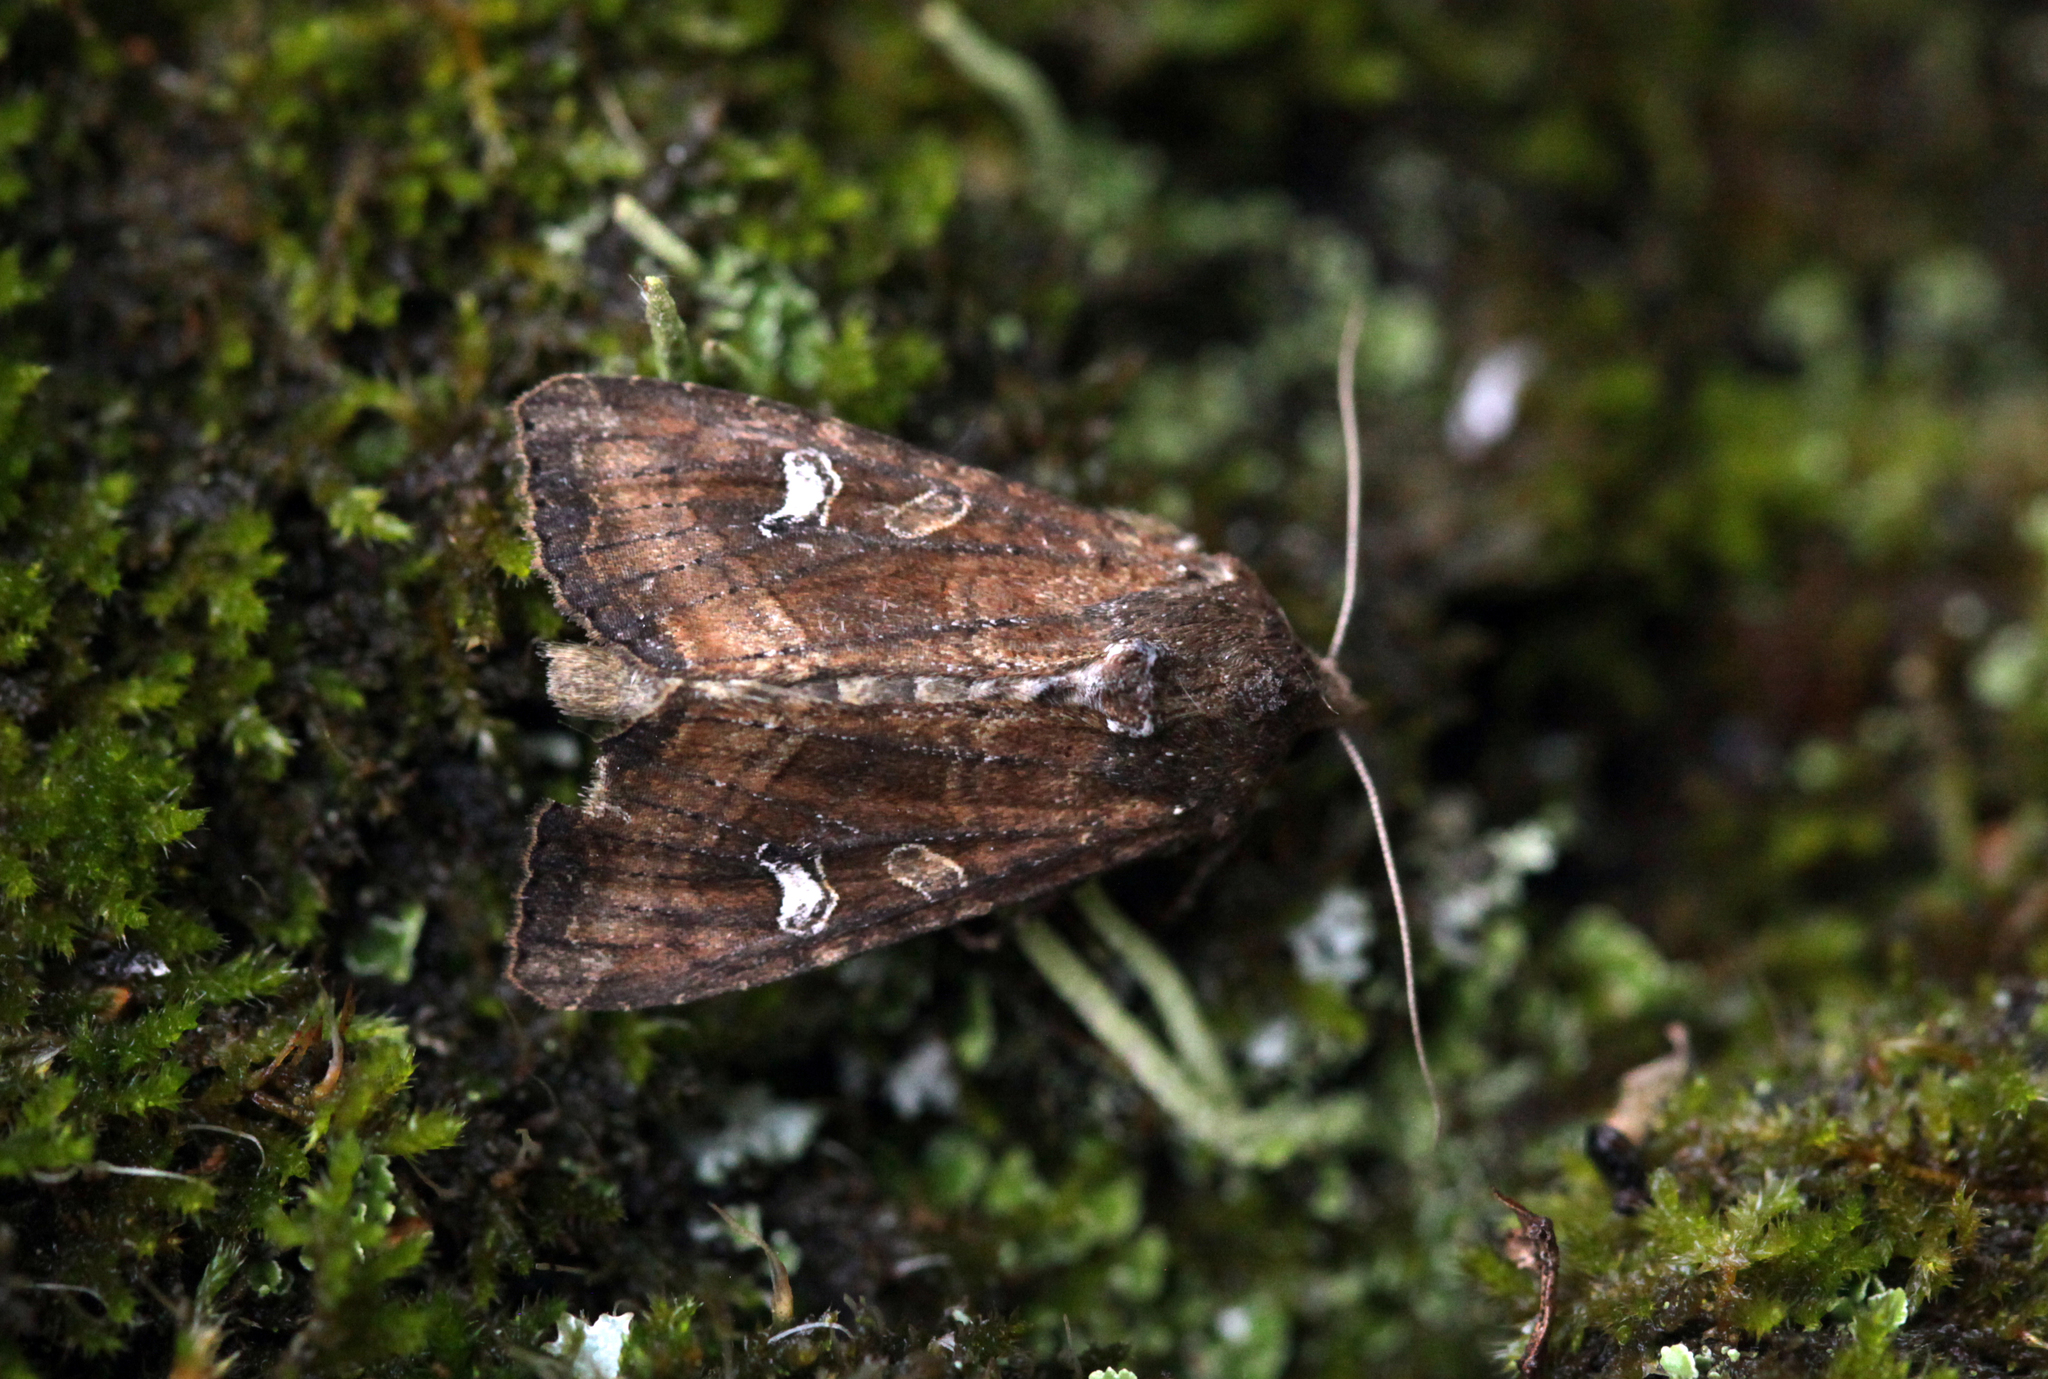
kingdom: Animalia
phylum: Arthropoda
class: Insecta
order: Lepidoptera
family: Noctuidae
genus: Helotropha
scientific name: Helotropha leucostigma
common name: The crescent
